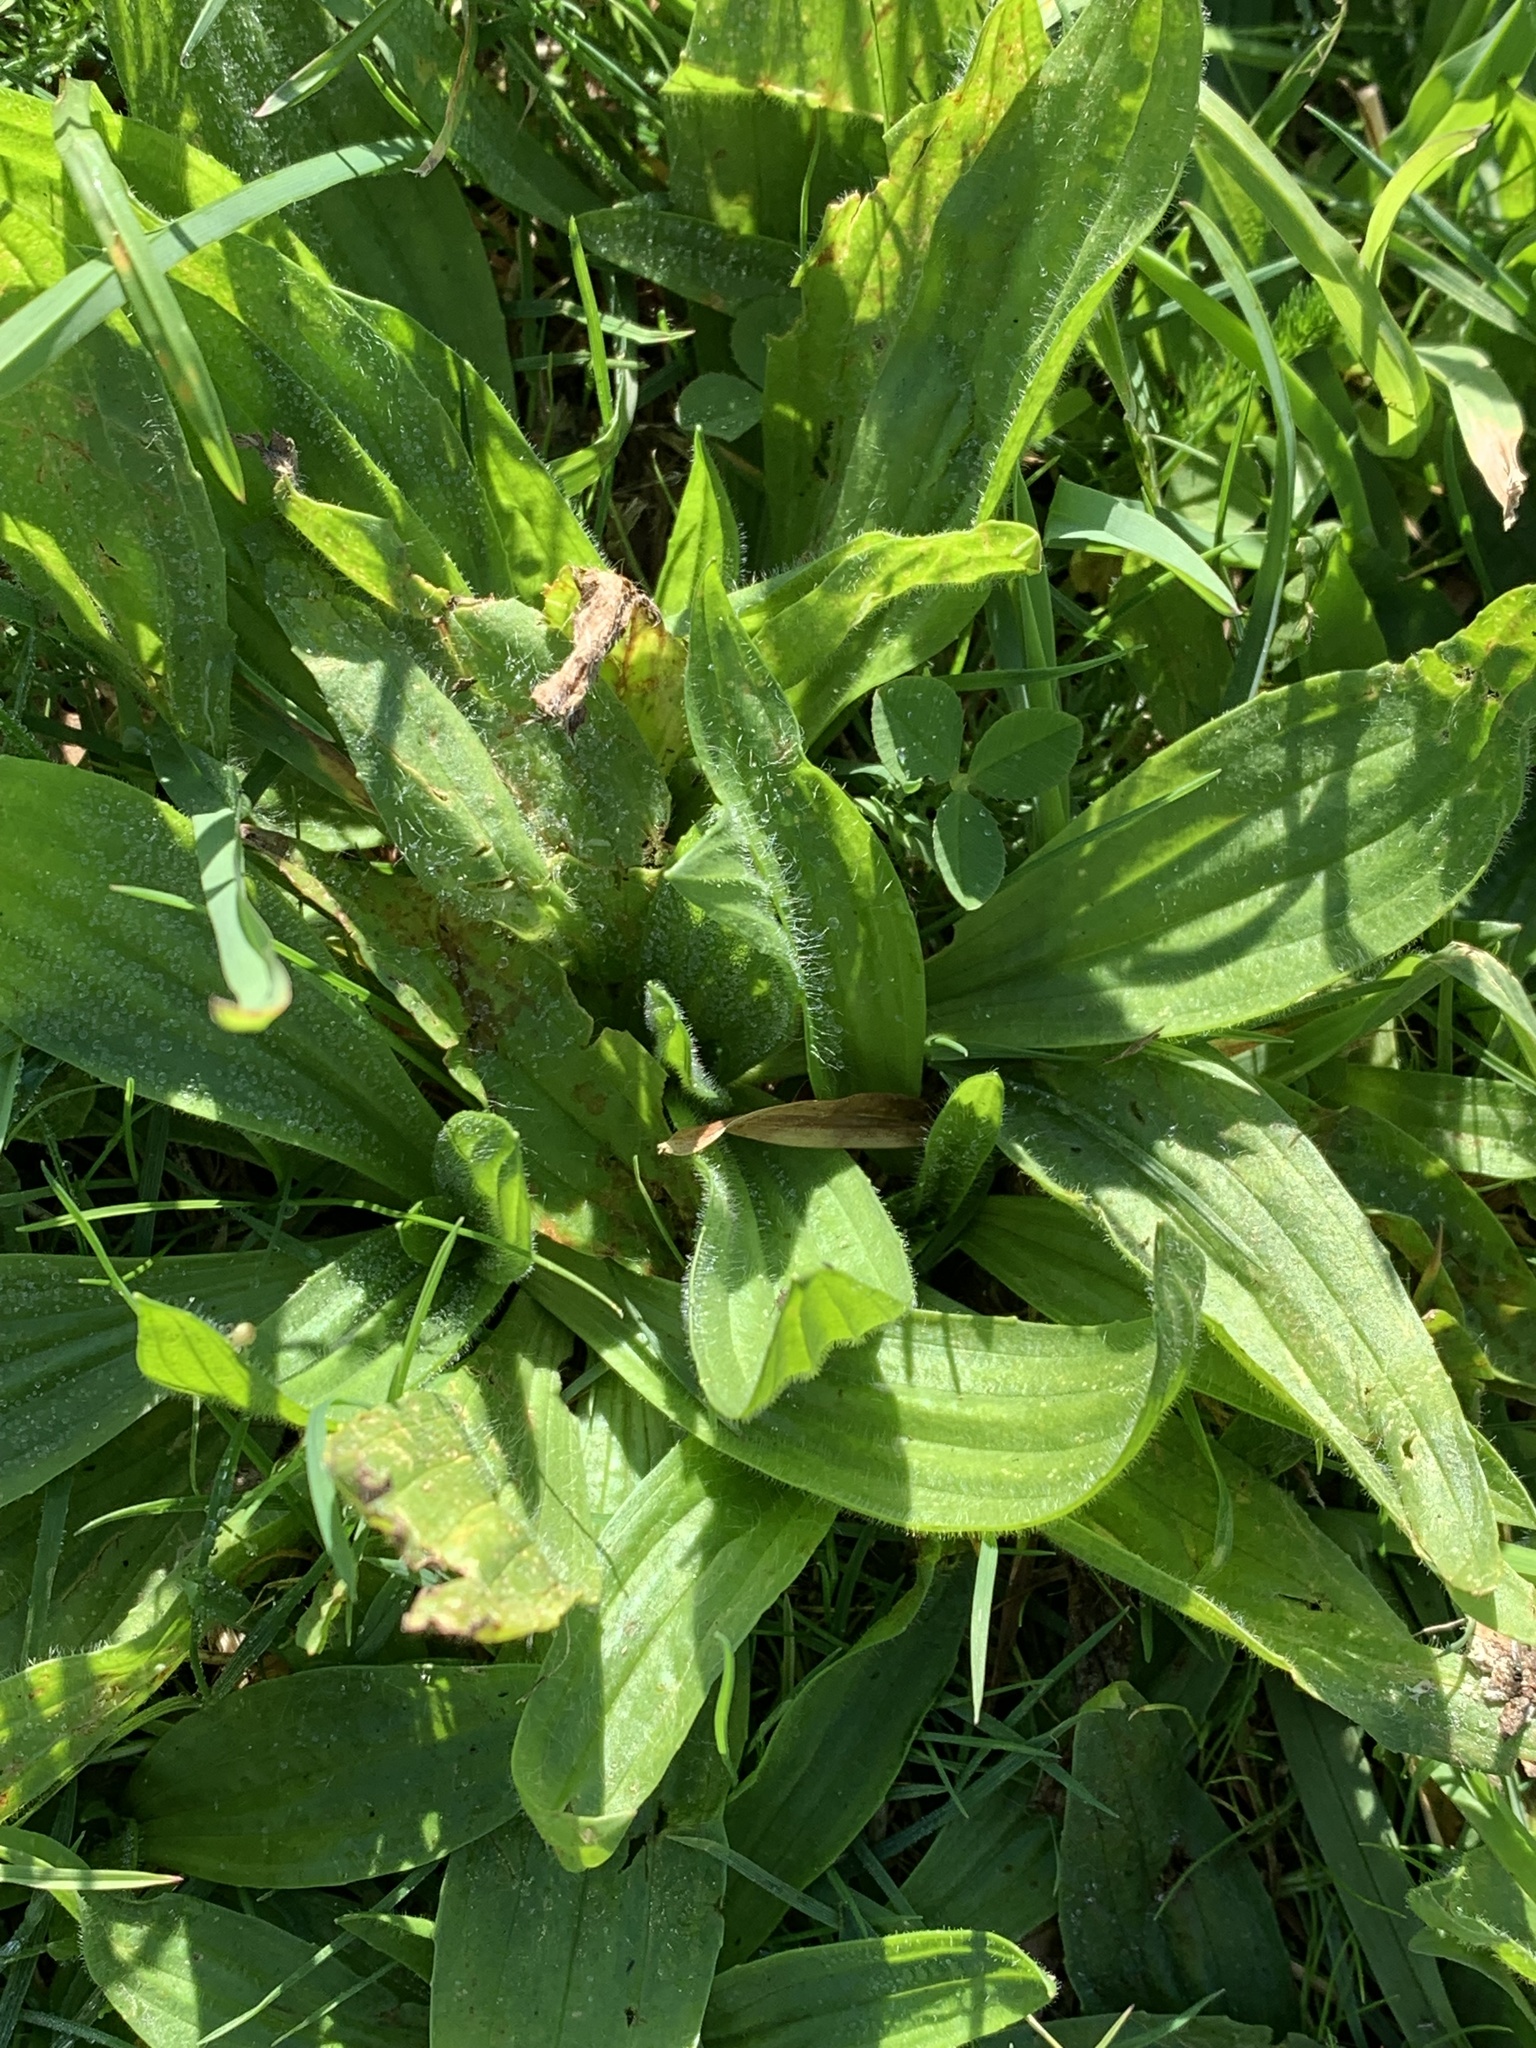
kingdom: Plantae
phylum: Tracheophyta
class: Magnoliopsida
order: Lamiales
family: Plantaginaceae
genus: Plantago
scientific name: Plantago lanceolata
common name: Ribwort plantain
